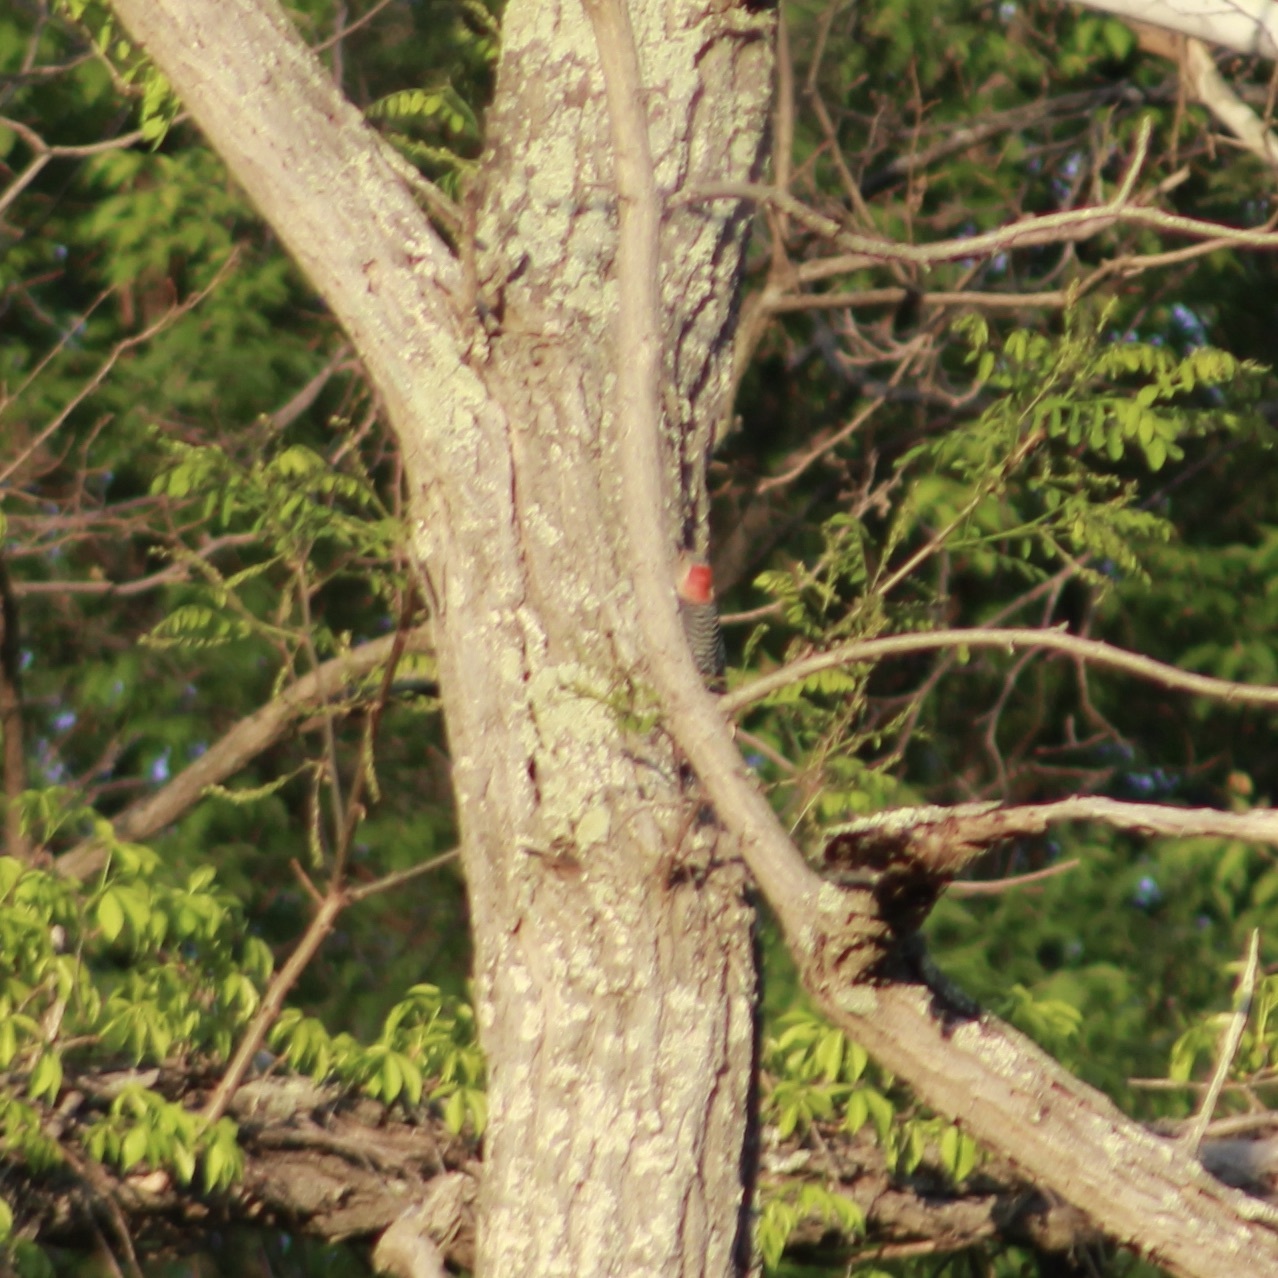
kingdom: Animalia
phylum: Chordata
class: Aves
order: Piciformes
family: Picidae
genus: Melanerpes
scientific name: Melanerpes carolinus
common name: Red-bellied woodpecker
